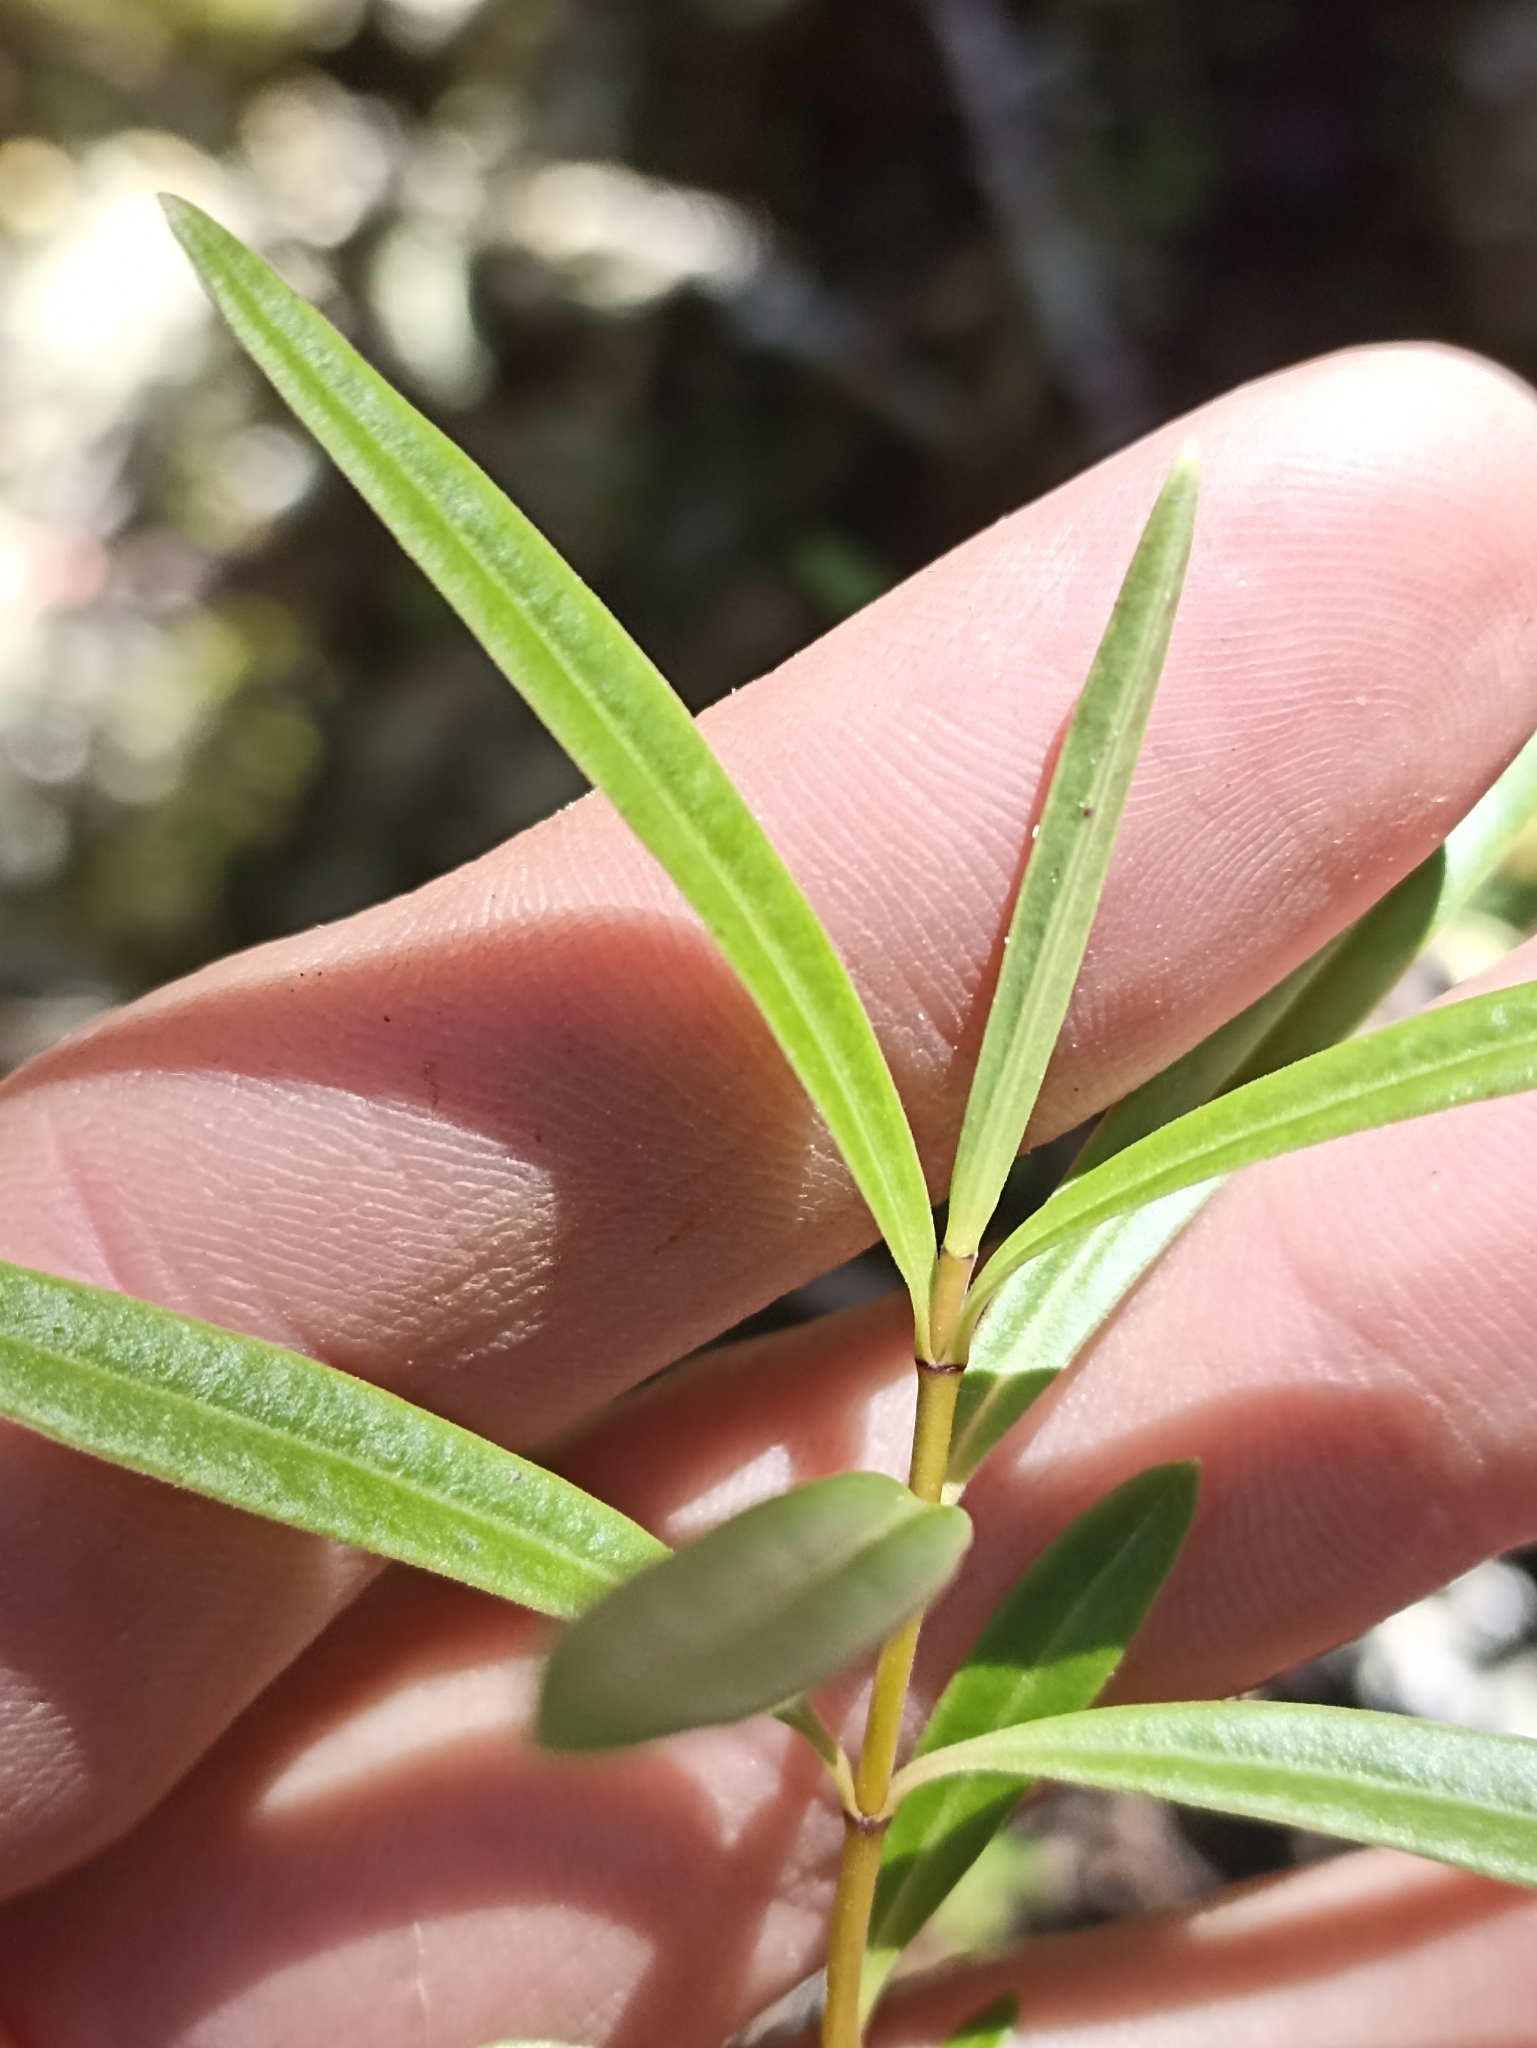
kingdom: Plantae
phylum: Tracheophyta
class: Magnoliopsida
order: Lamiales
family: Plantaginaceae
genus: Veronica
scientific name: Veronica parviflora
